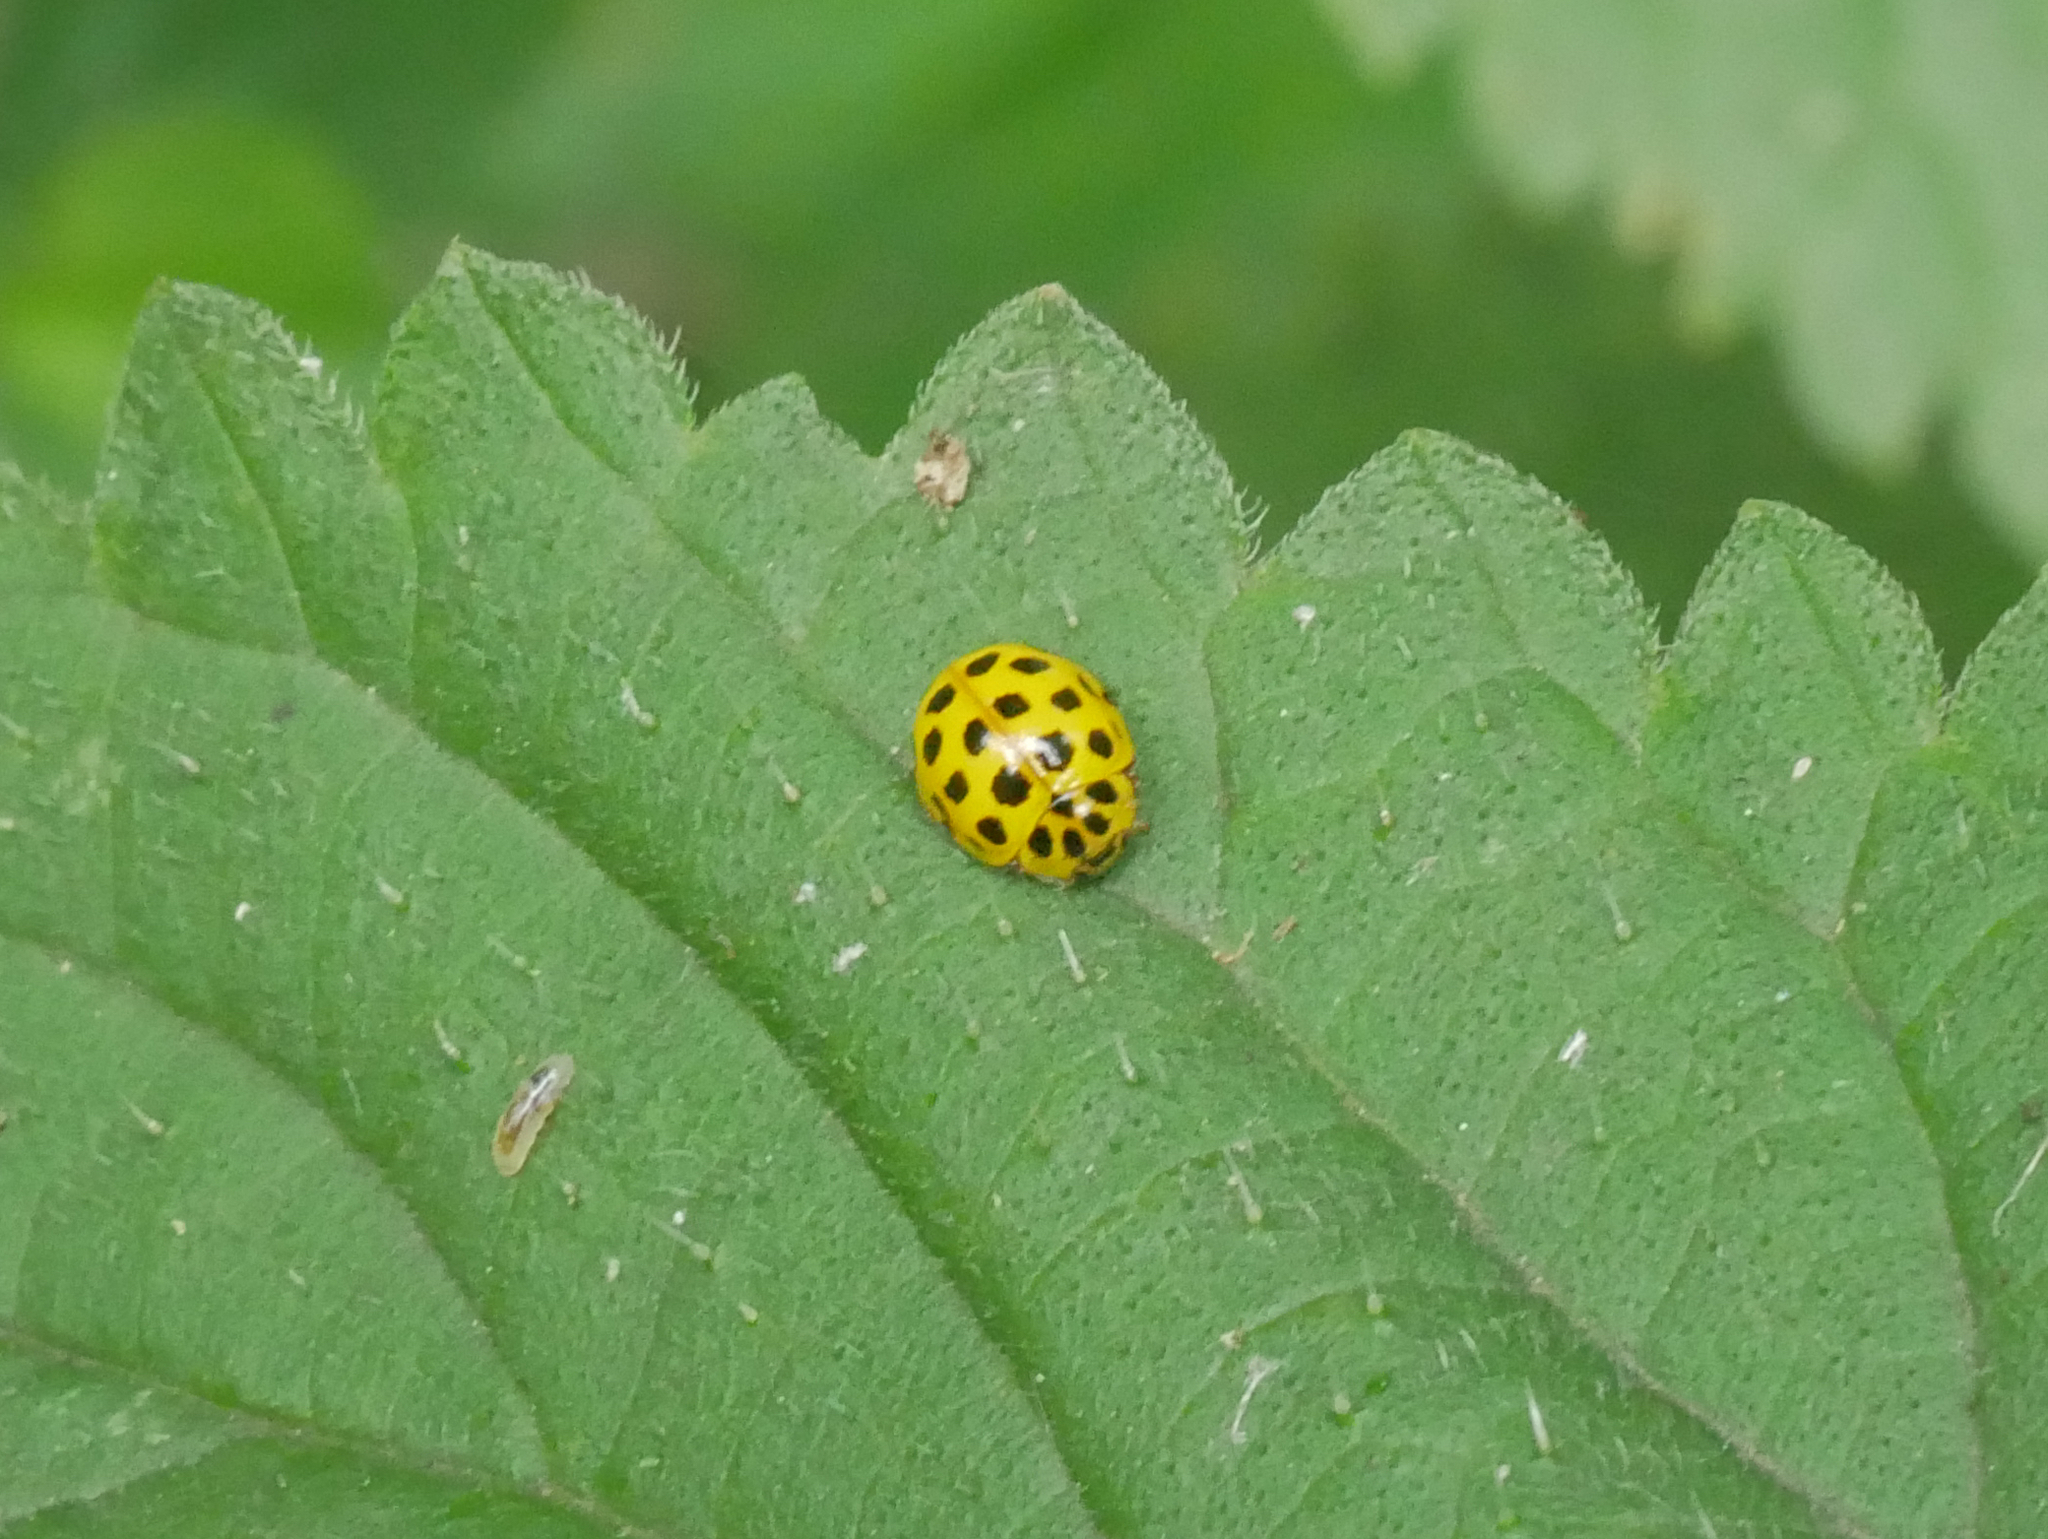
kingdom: Animalia
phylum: Arthropoda
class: Insecta
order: Coleoptera
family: Coccinellidae
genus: Psyllobora
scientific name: Psyllobora vigintiduopunctata
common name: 22-spot ladybird
